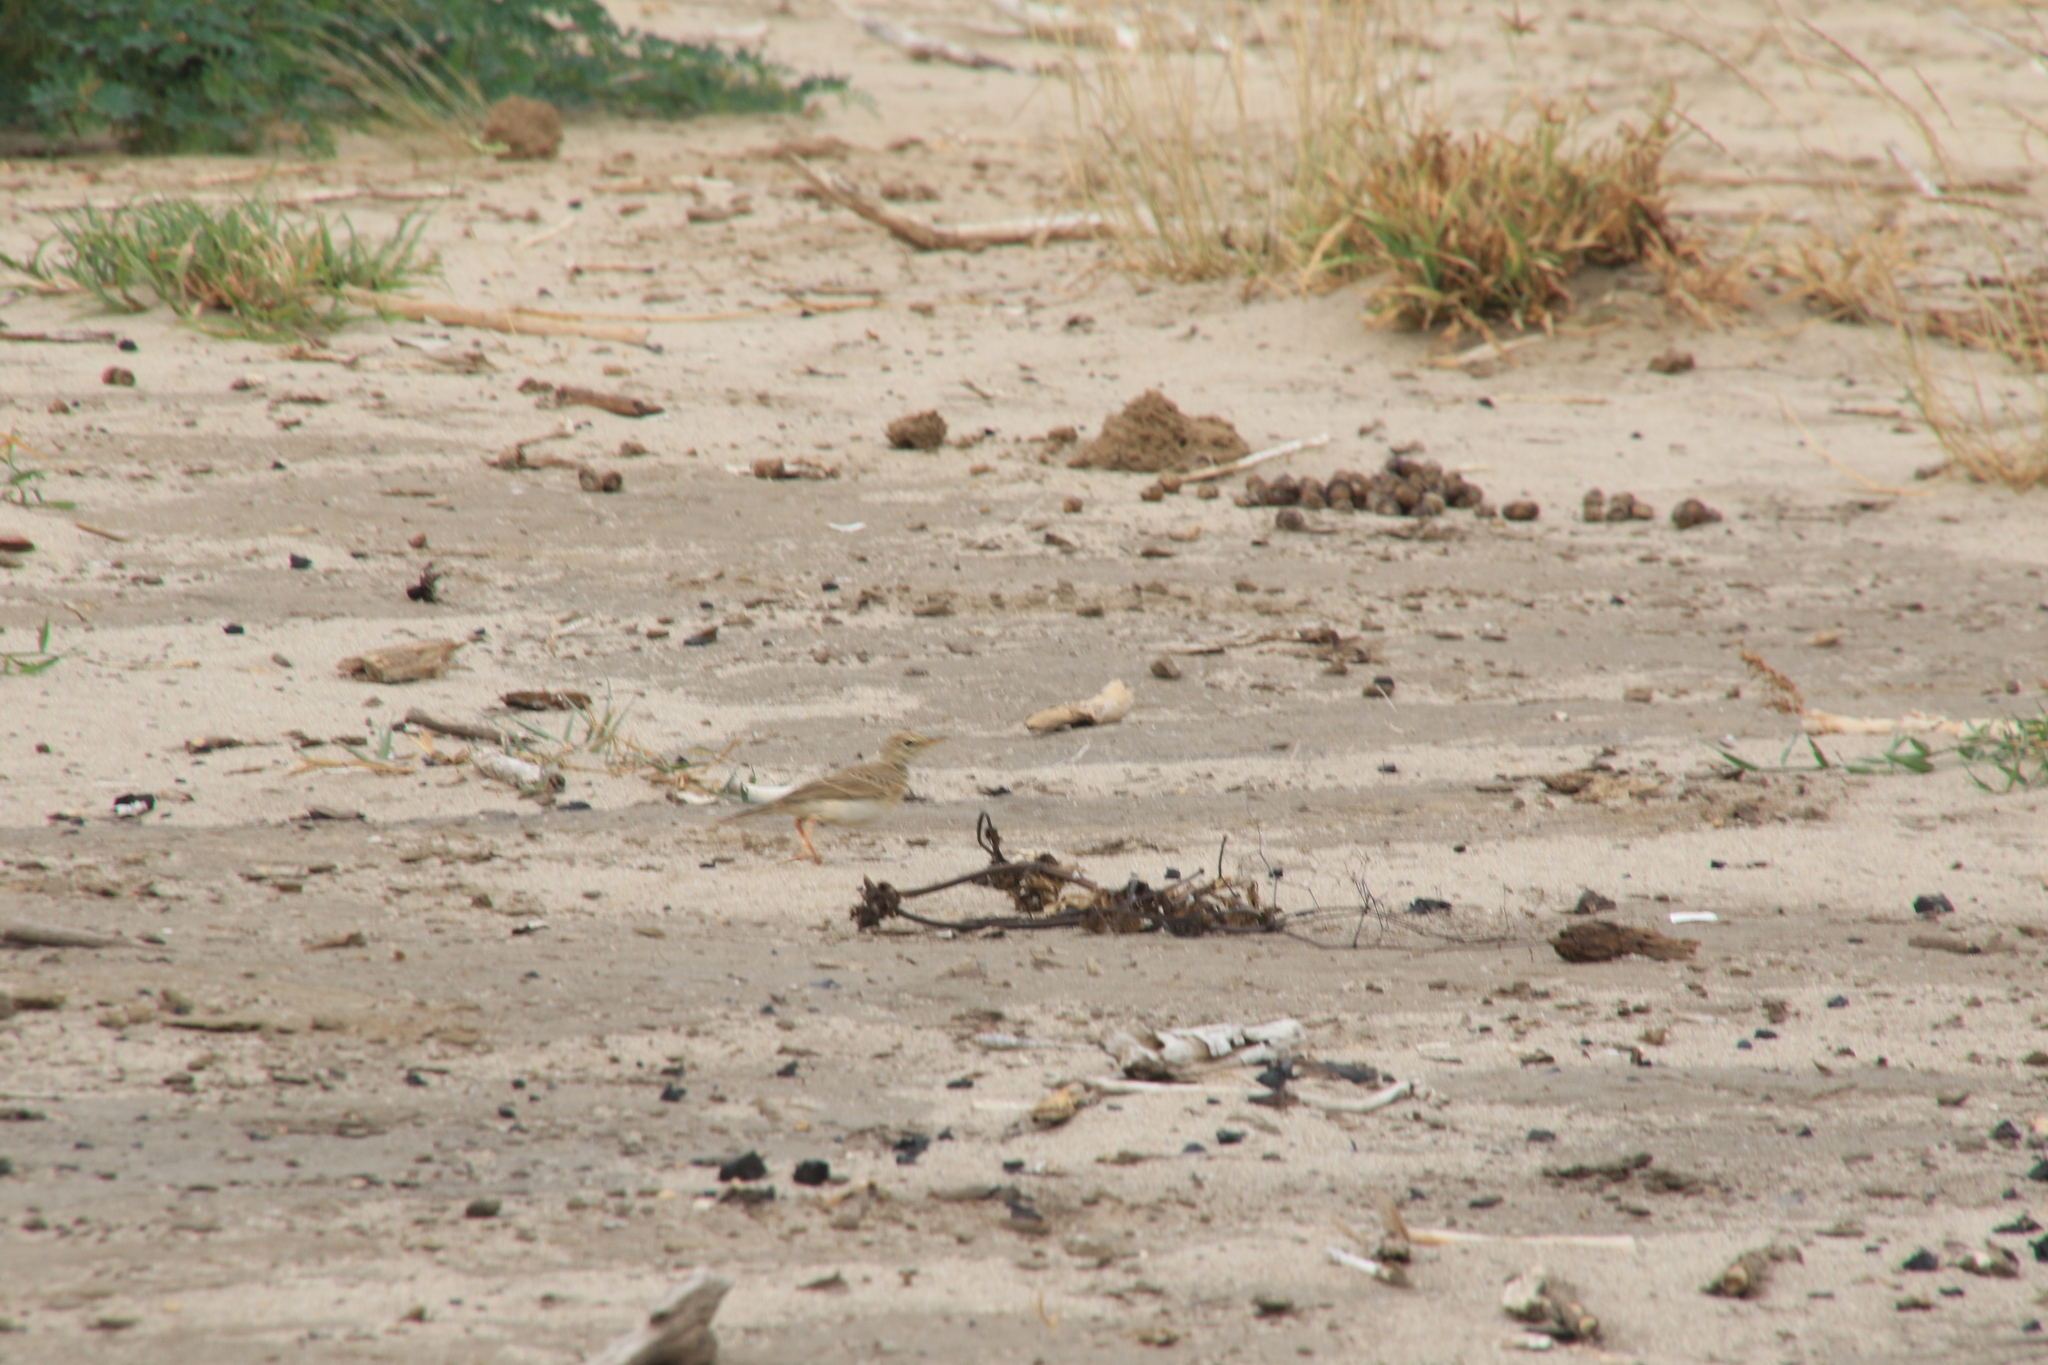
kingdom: Animalia
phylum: Chordata
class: Aves
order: Passeriformes
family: Motacillidae
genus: Anthus
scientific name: Anthus melindae
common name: Malindi pipit
